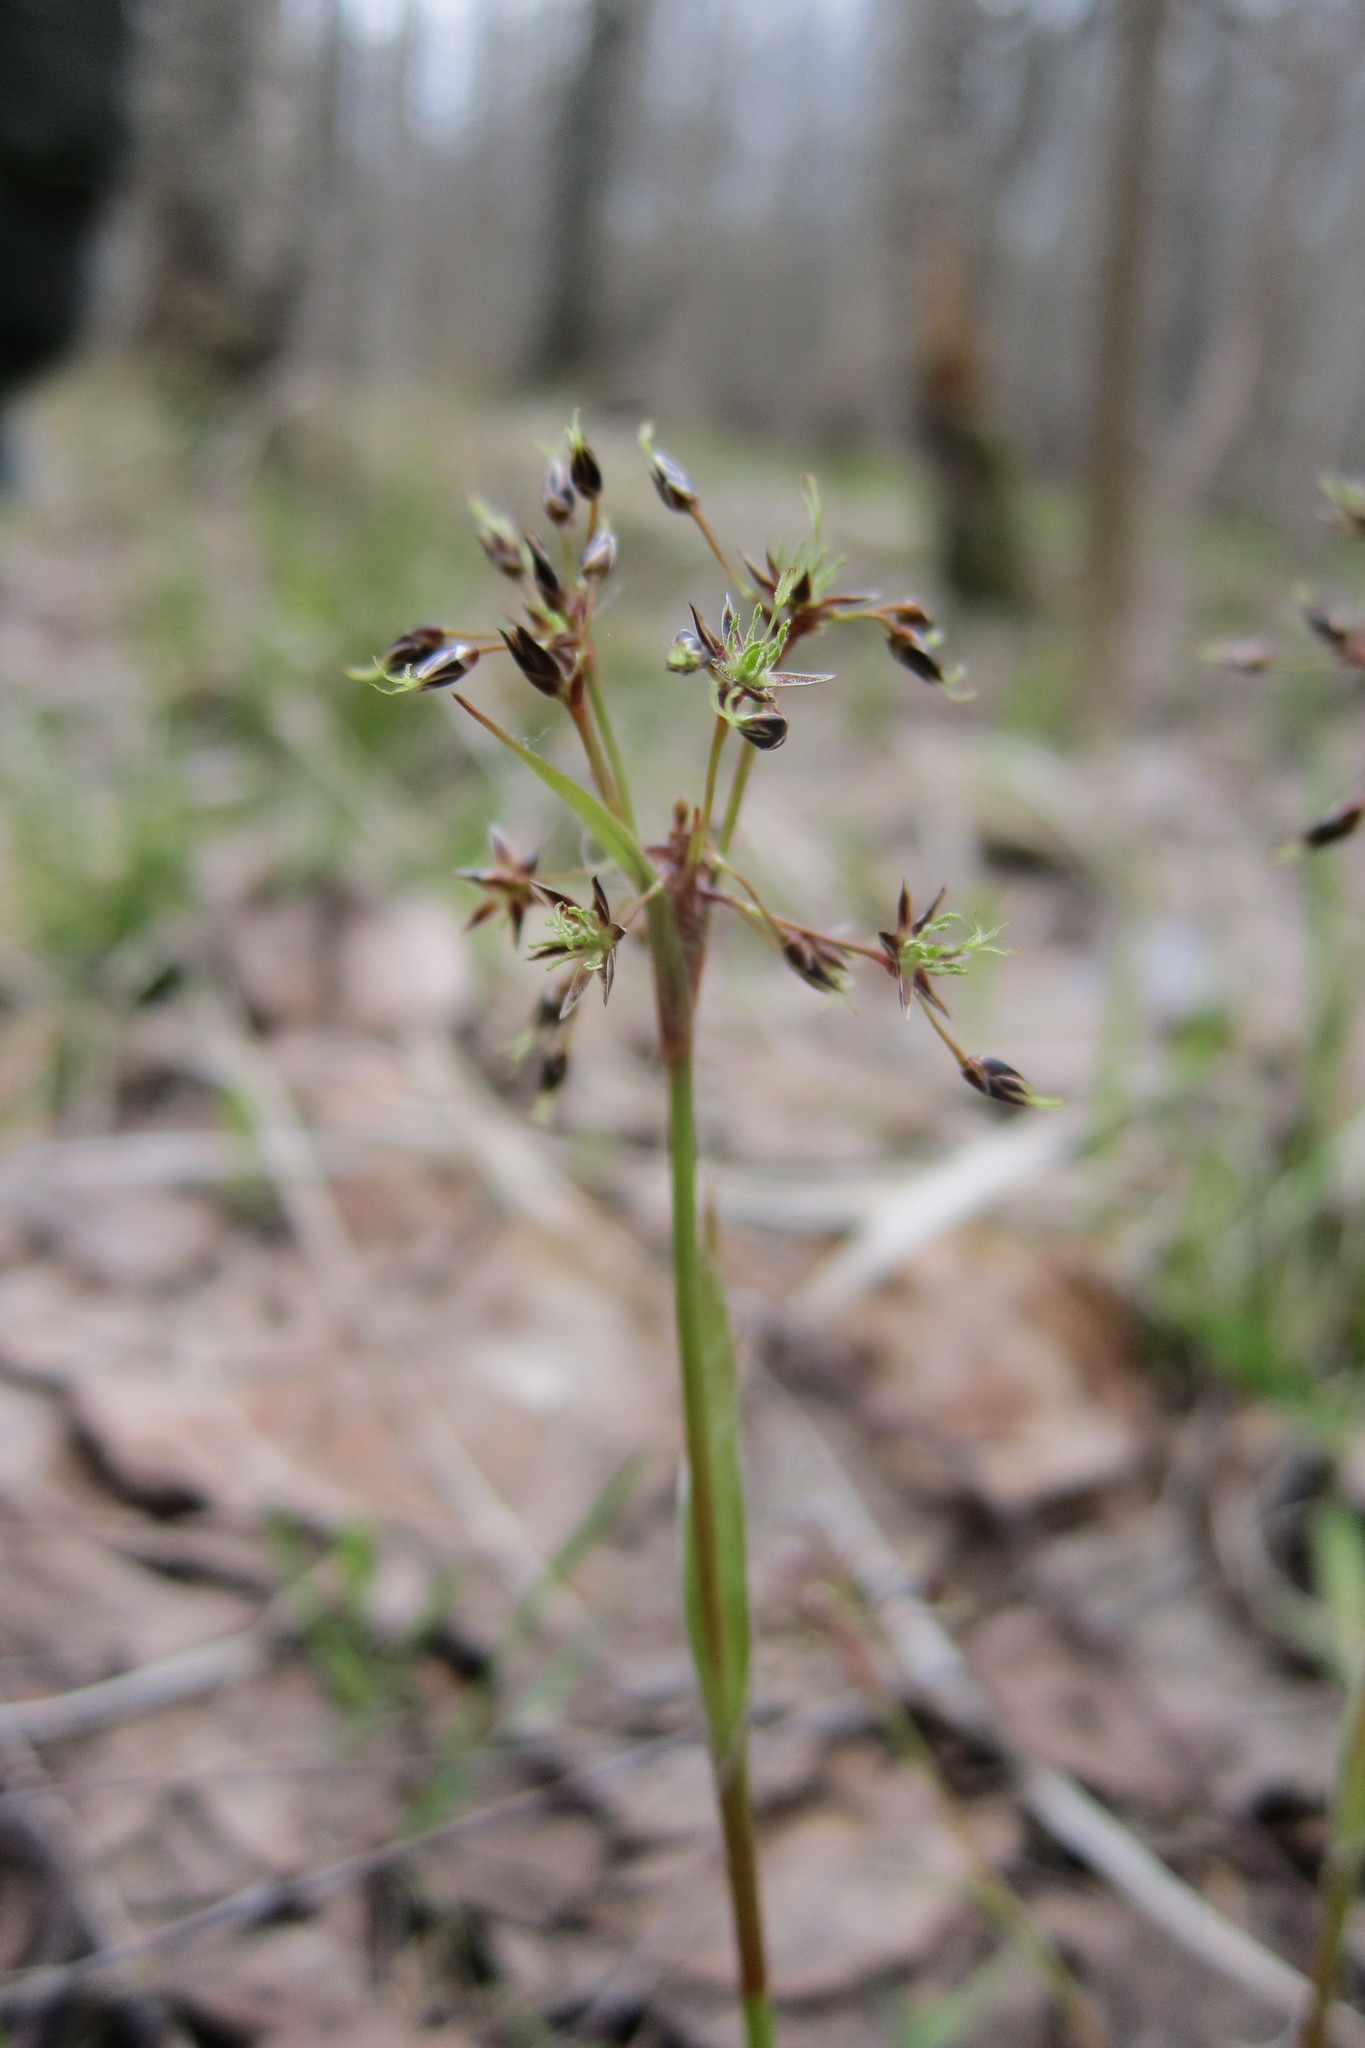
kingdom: Plantae
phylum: Tracheophyta
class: Liliopsida
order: Poales
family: Juncaceae
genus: Luzula
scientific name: Luzula pilosa
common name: Hairy wood-rush
